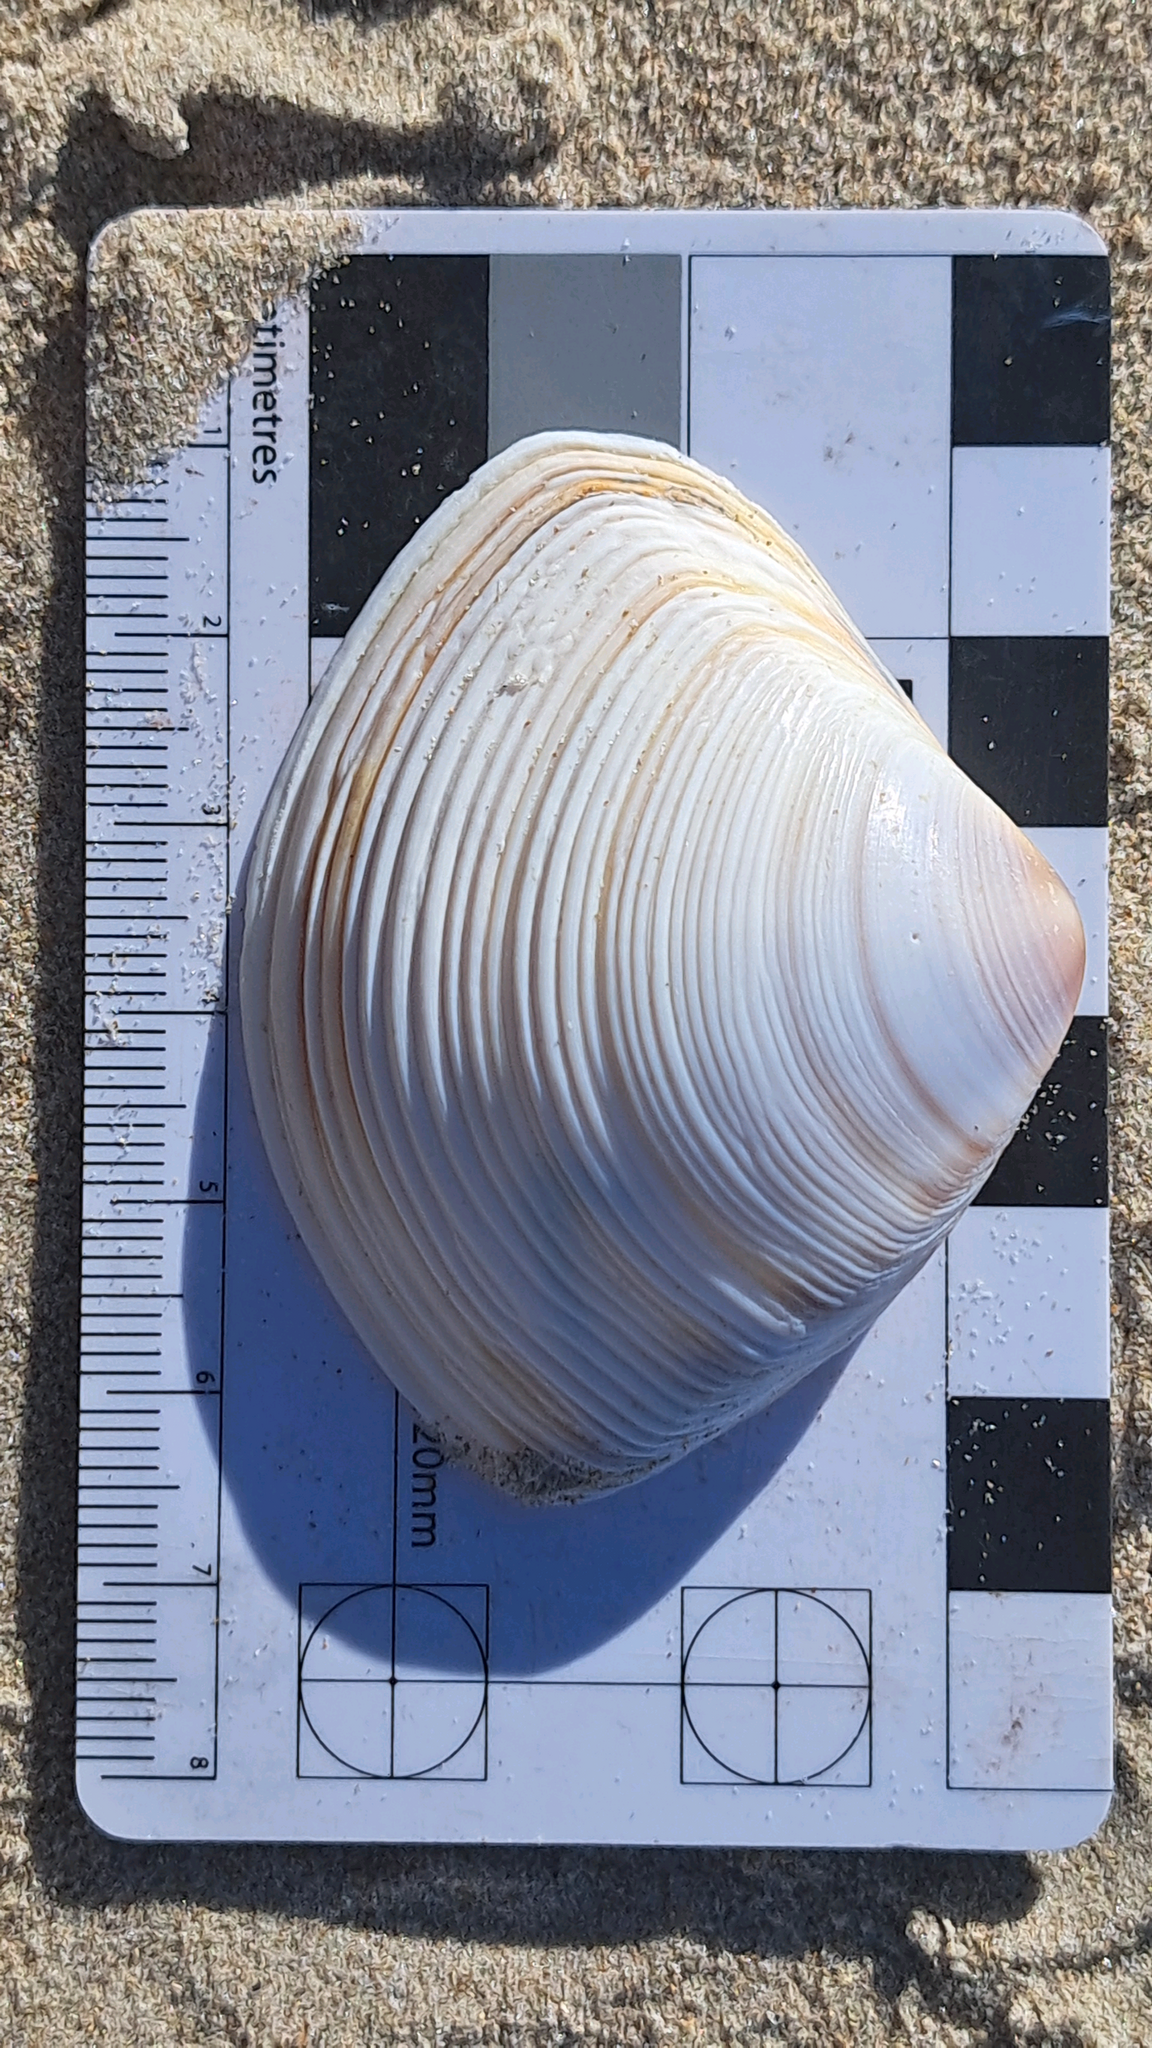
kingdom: Animalia
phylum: Mollusca
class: Bivalvia
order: Venerida
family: Mactridae
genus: Austromactra
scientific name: Austromactra rufescens
